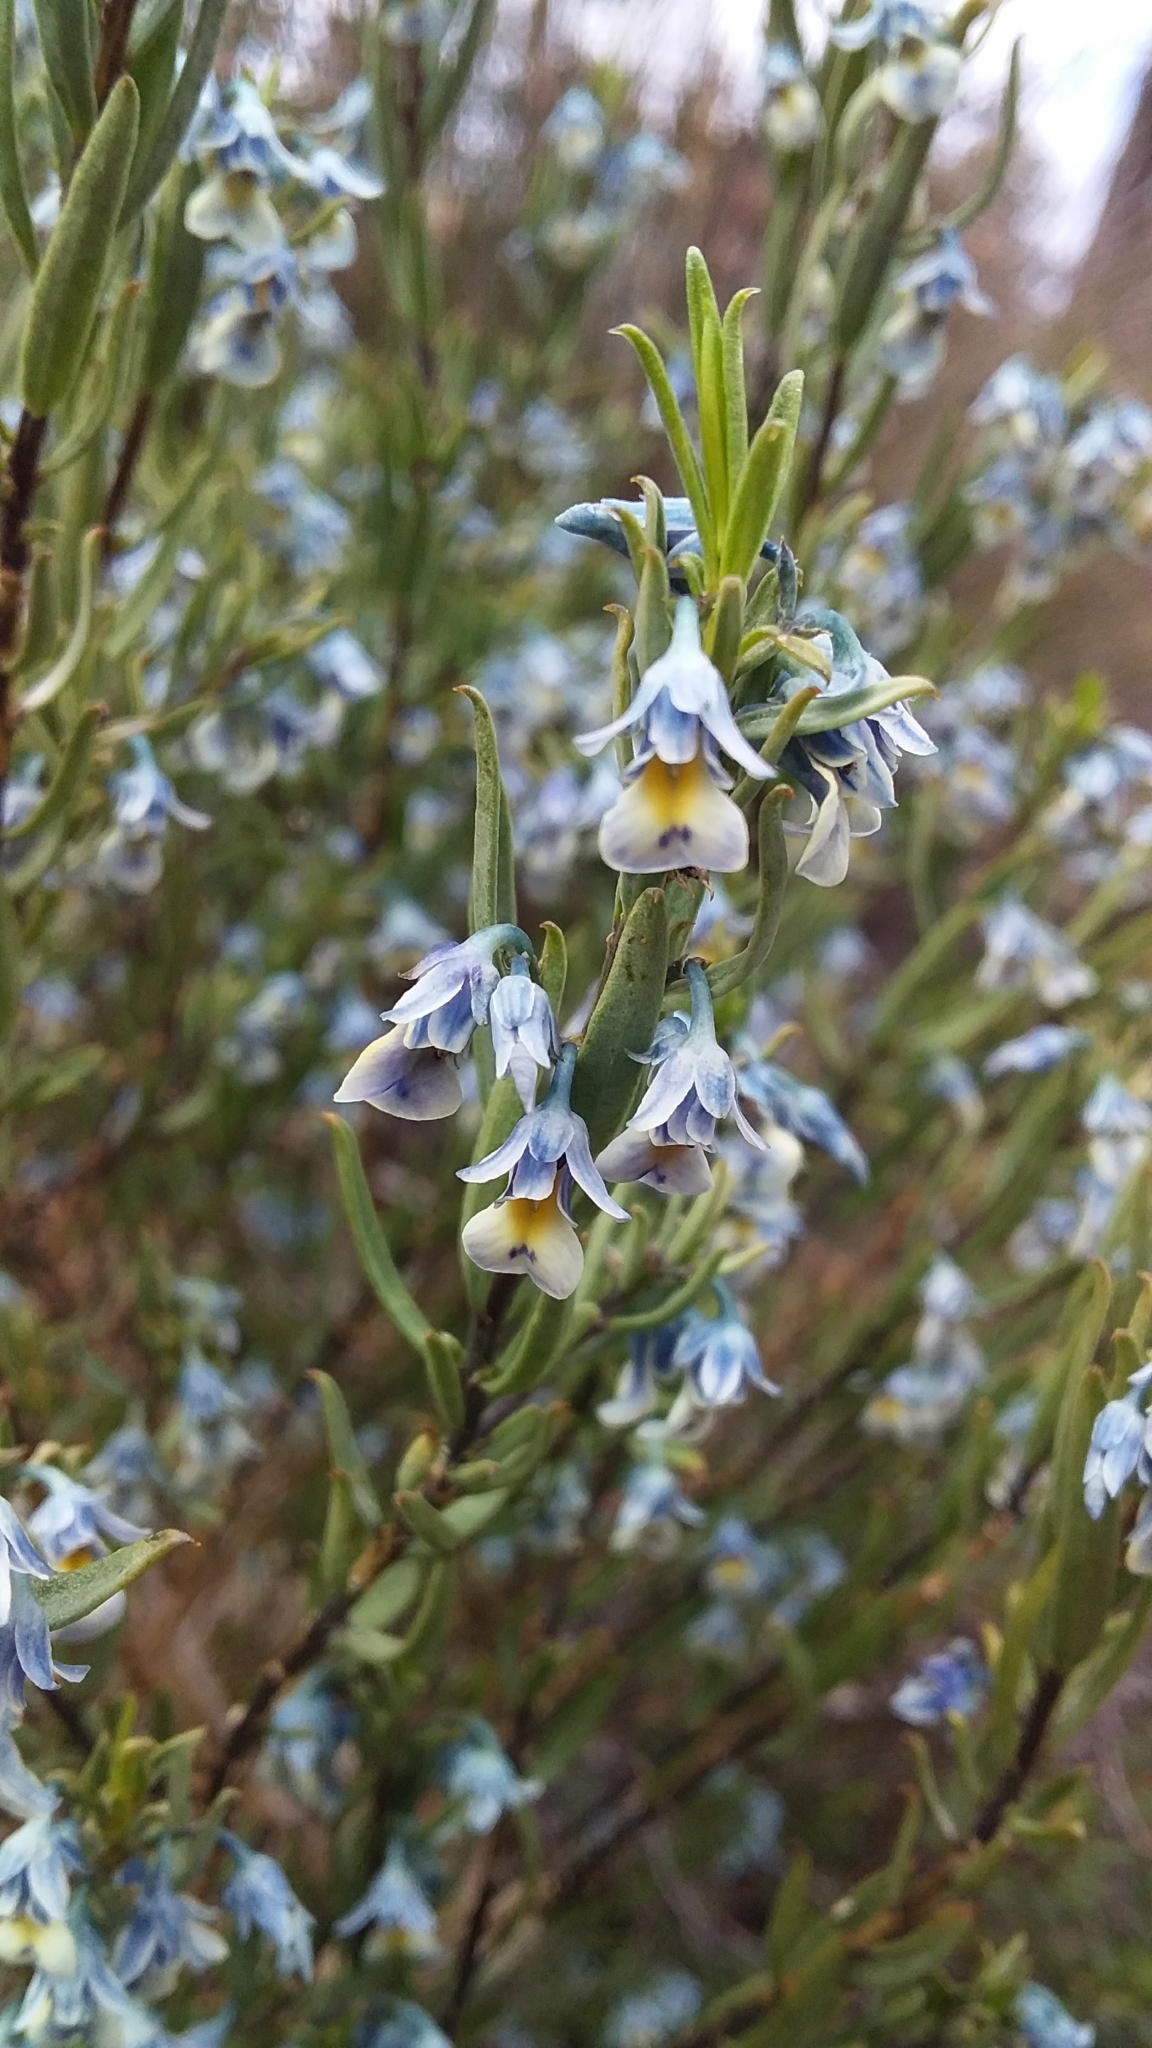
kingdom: Plantae
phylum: Tracheophyta
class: Magnoliopsida
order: Malpighiales
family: Violaceae
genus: Pigea
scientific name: Pigea floribunda
